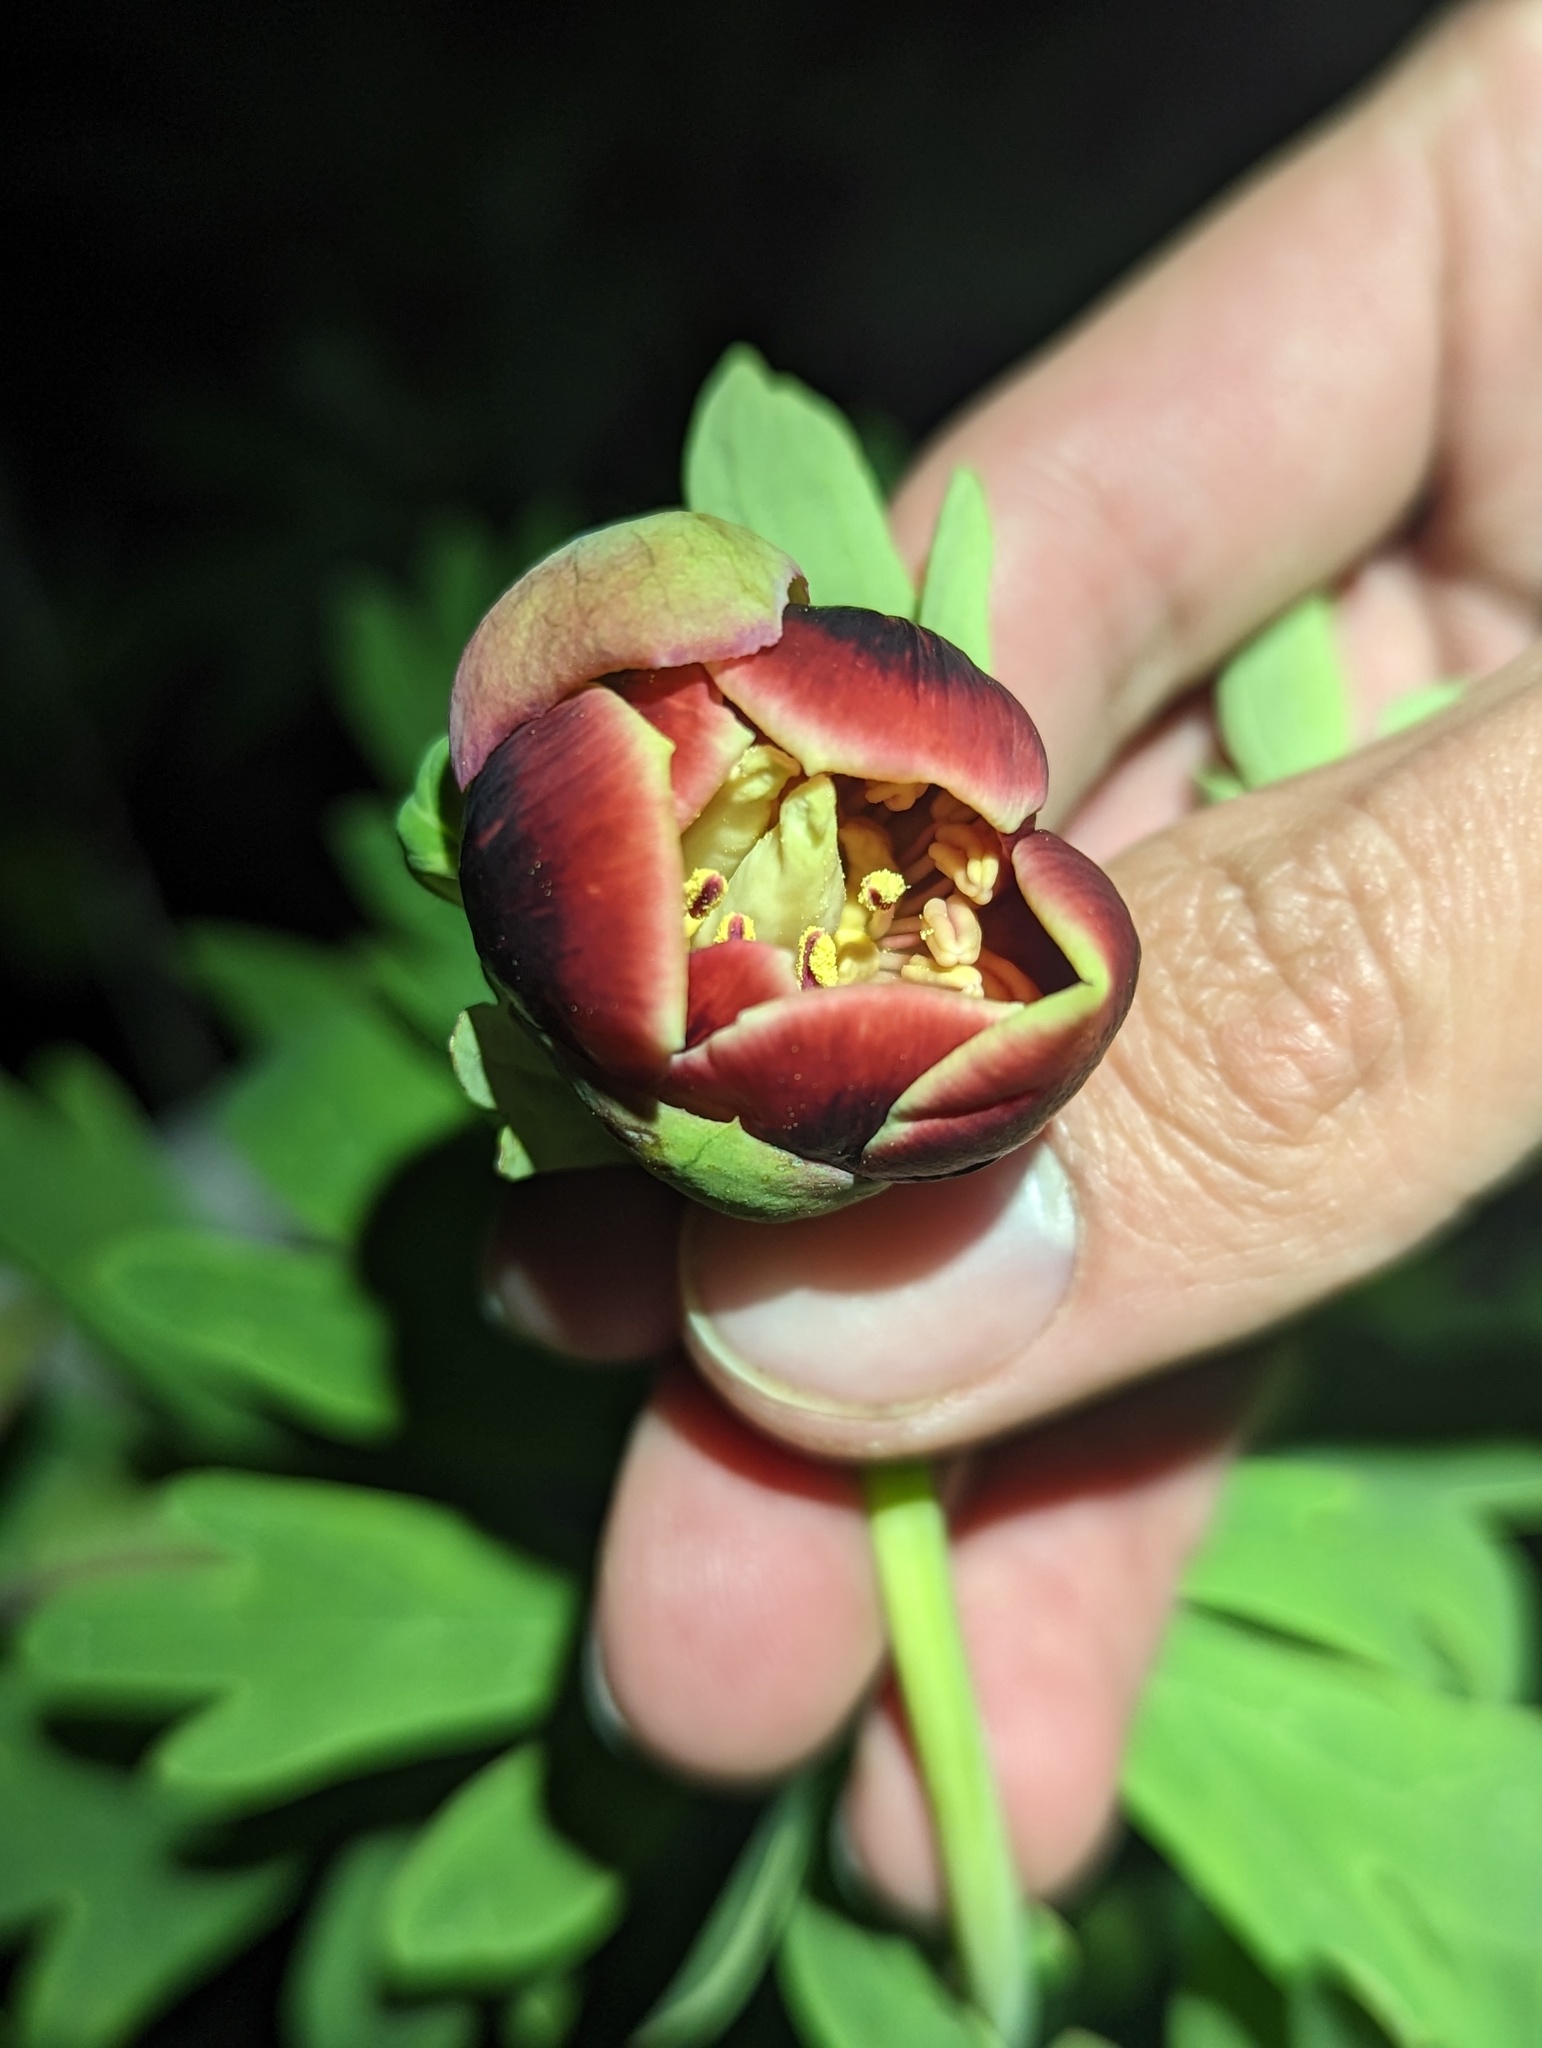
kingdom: Plantae
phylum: Tracheophyta
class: Magnoliopsida
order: Saxifragales
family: Paeoniaceae
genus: Paeonia
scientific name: Paeonia californica
